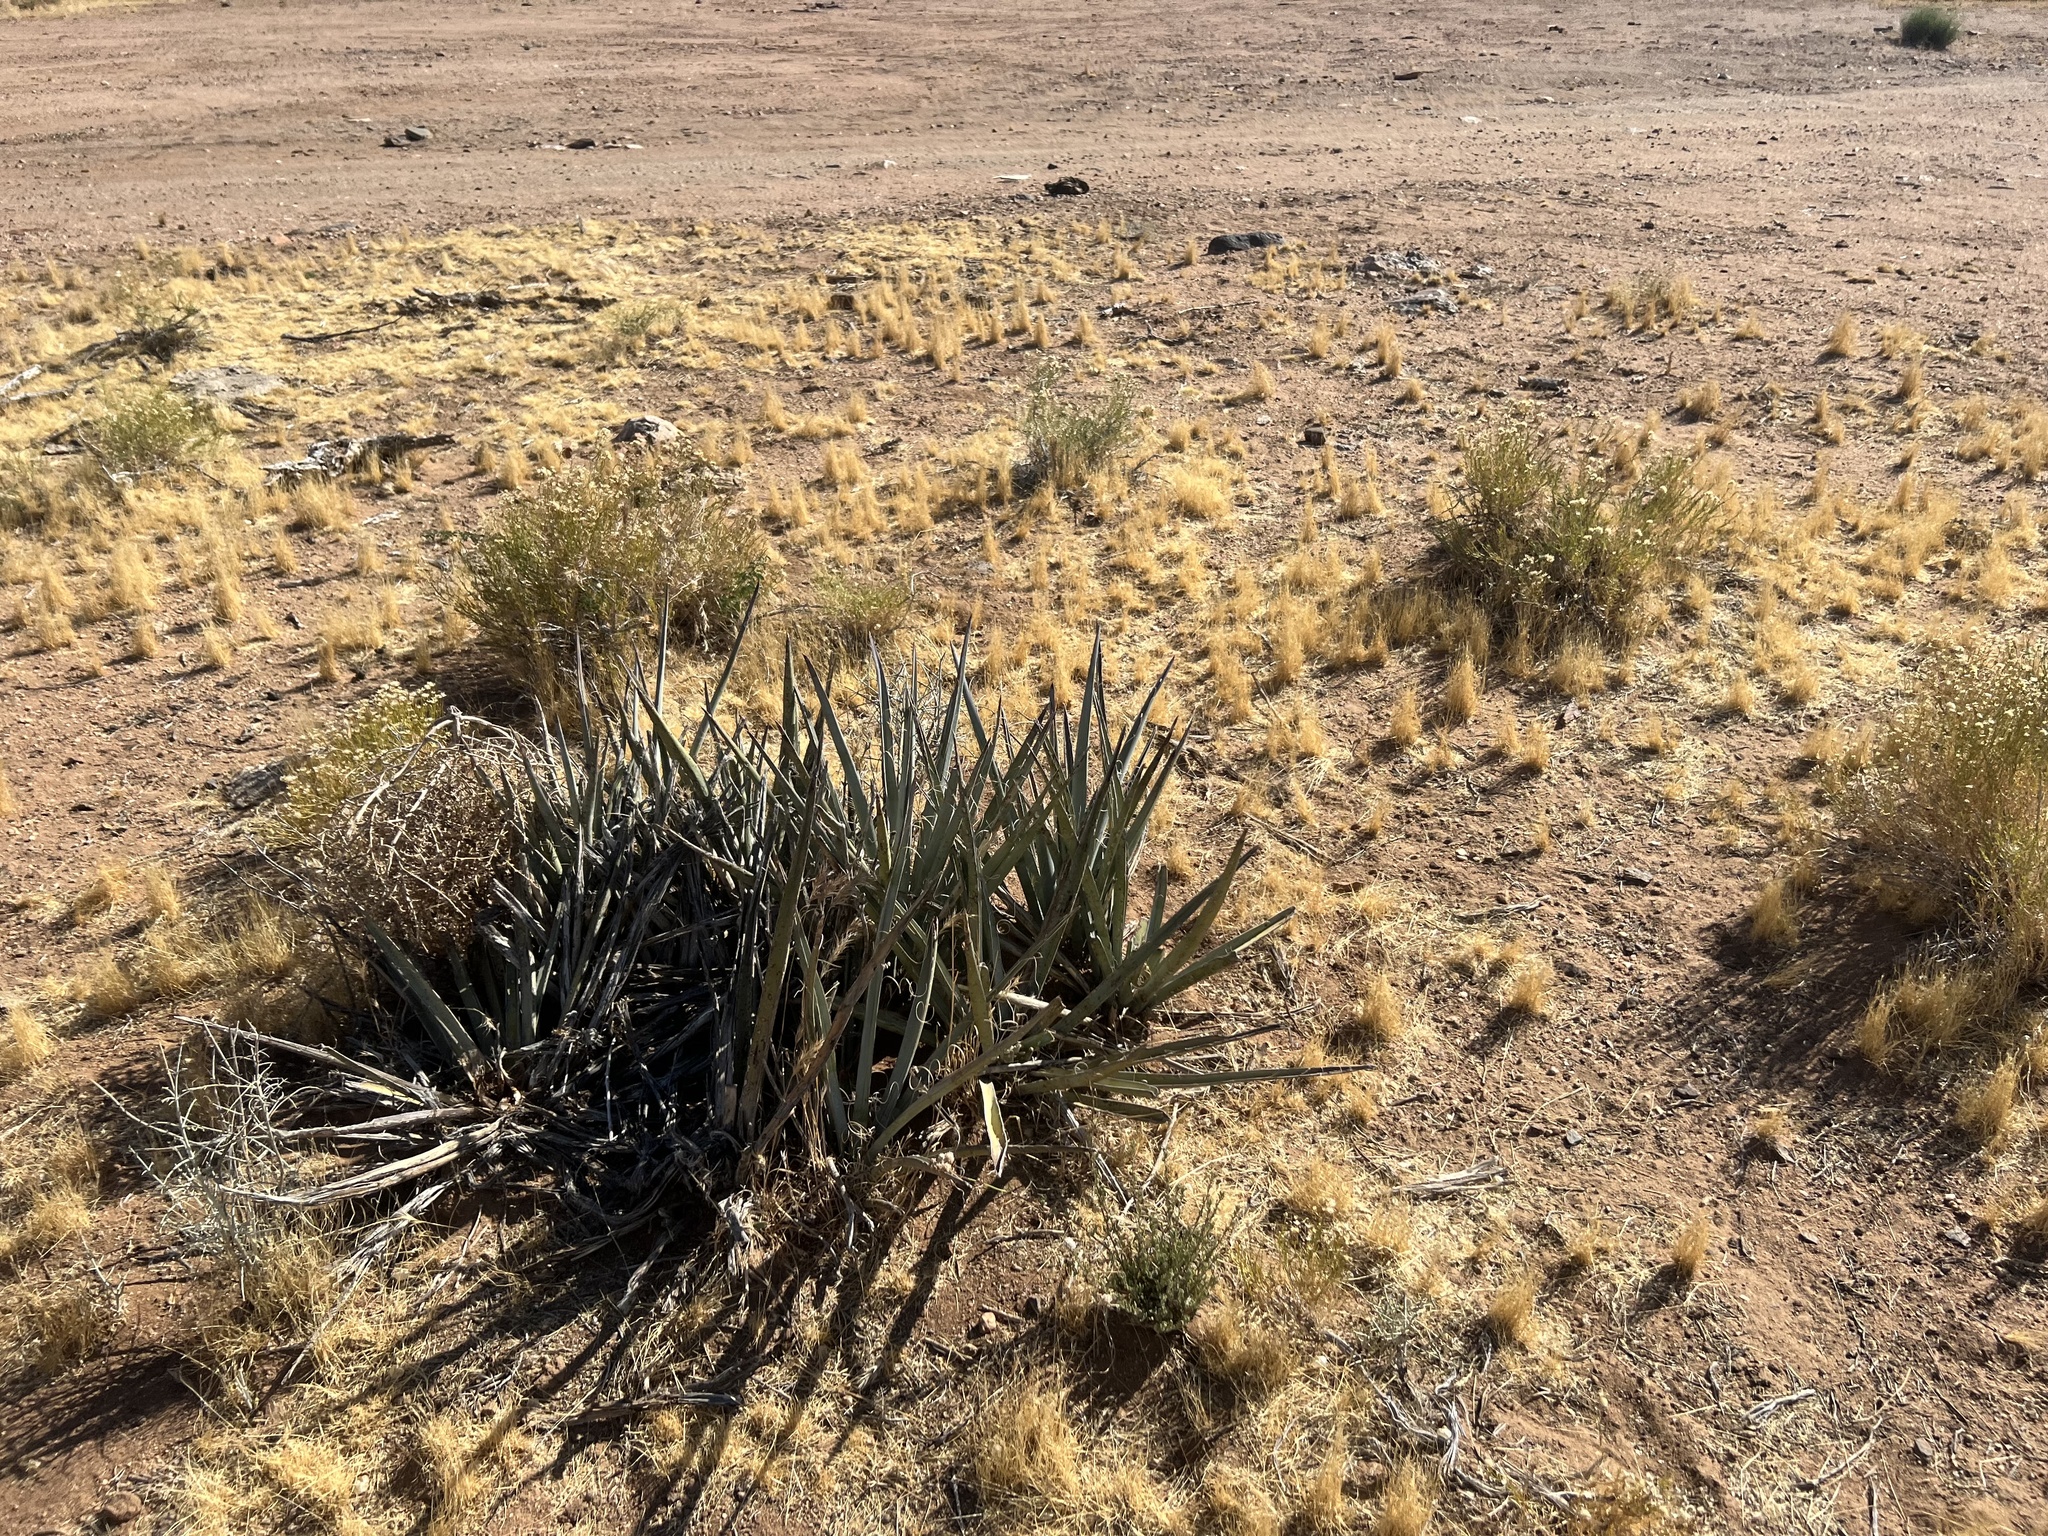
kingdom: Plantae
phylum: Tracheophyta
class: Liliopsida
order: Asparagales
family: Asparagaceae
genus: Yucca
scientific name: Yucca baccata
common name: Banana yucca
